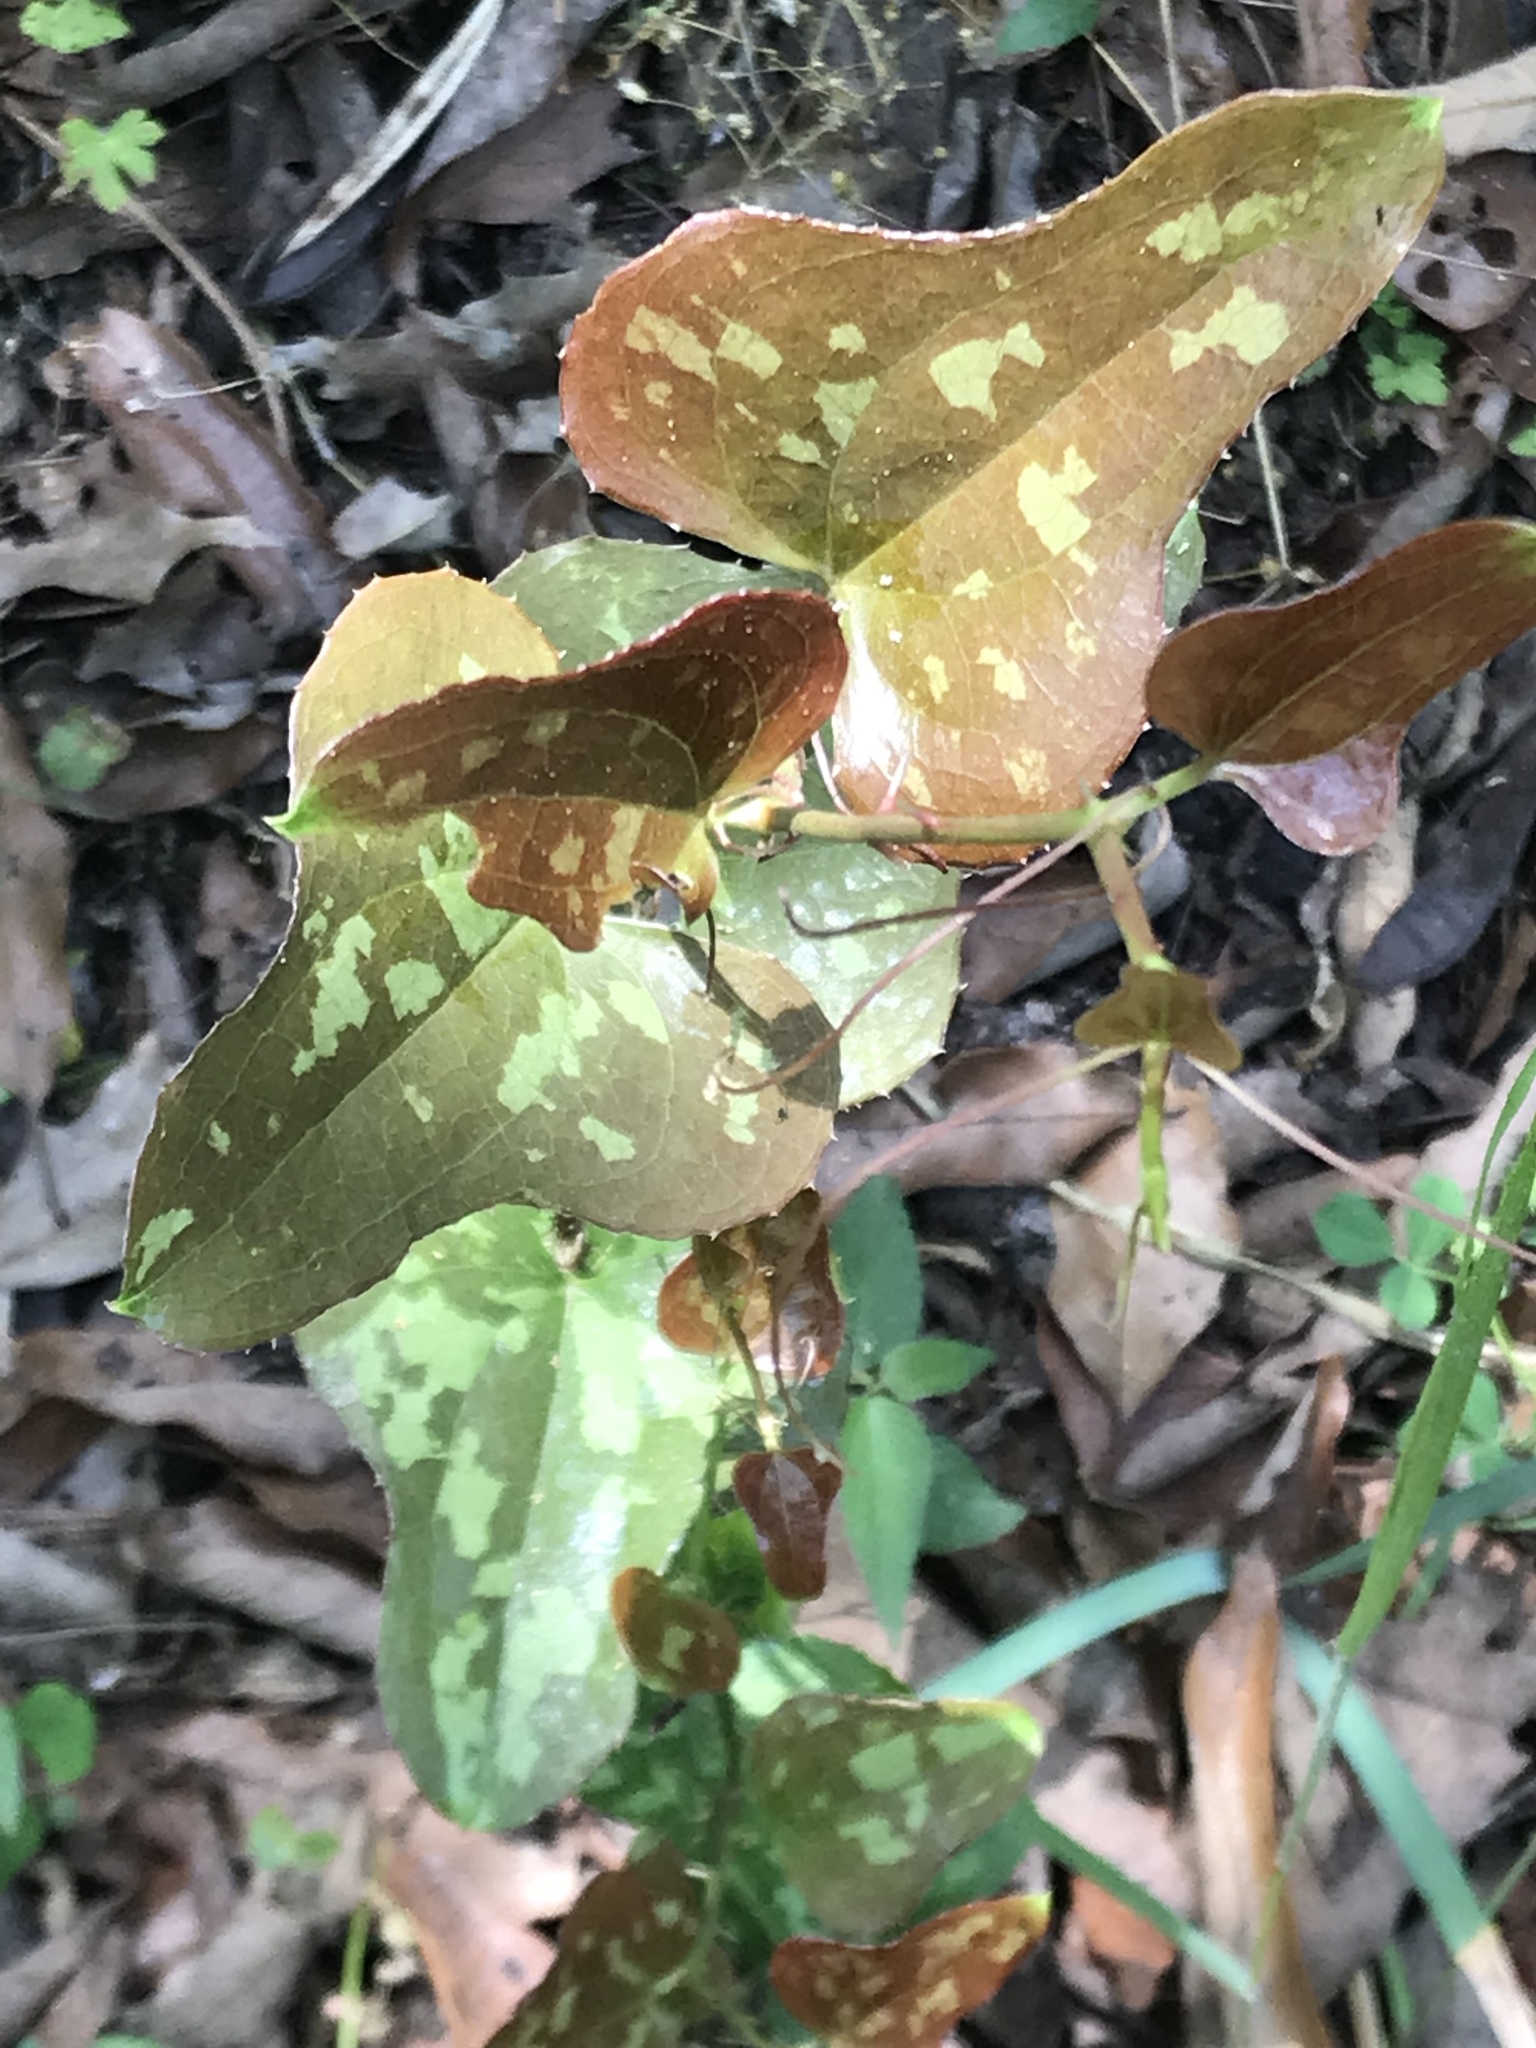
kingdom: Plantae
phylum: Tracheophyta
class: Liliopsida
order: Liliales
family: Smilacaceae
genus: Smilax
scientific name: Smilax bona-nox
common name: Catbrier
